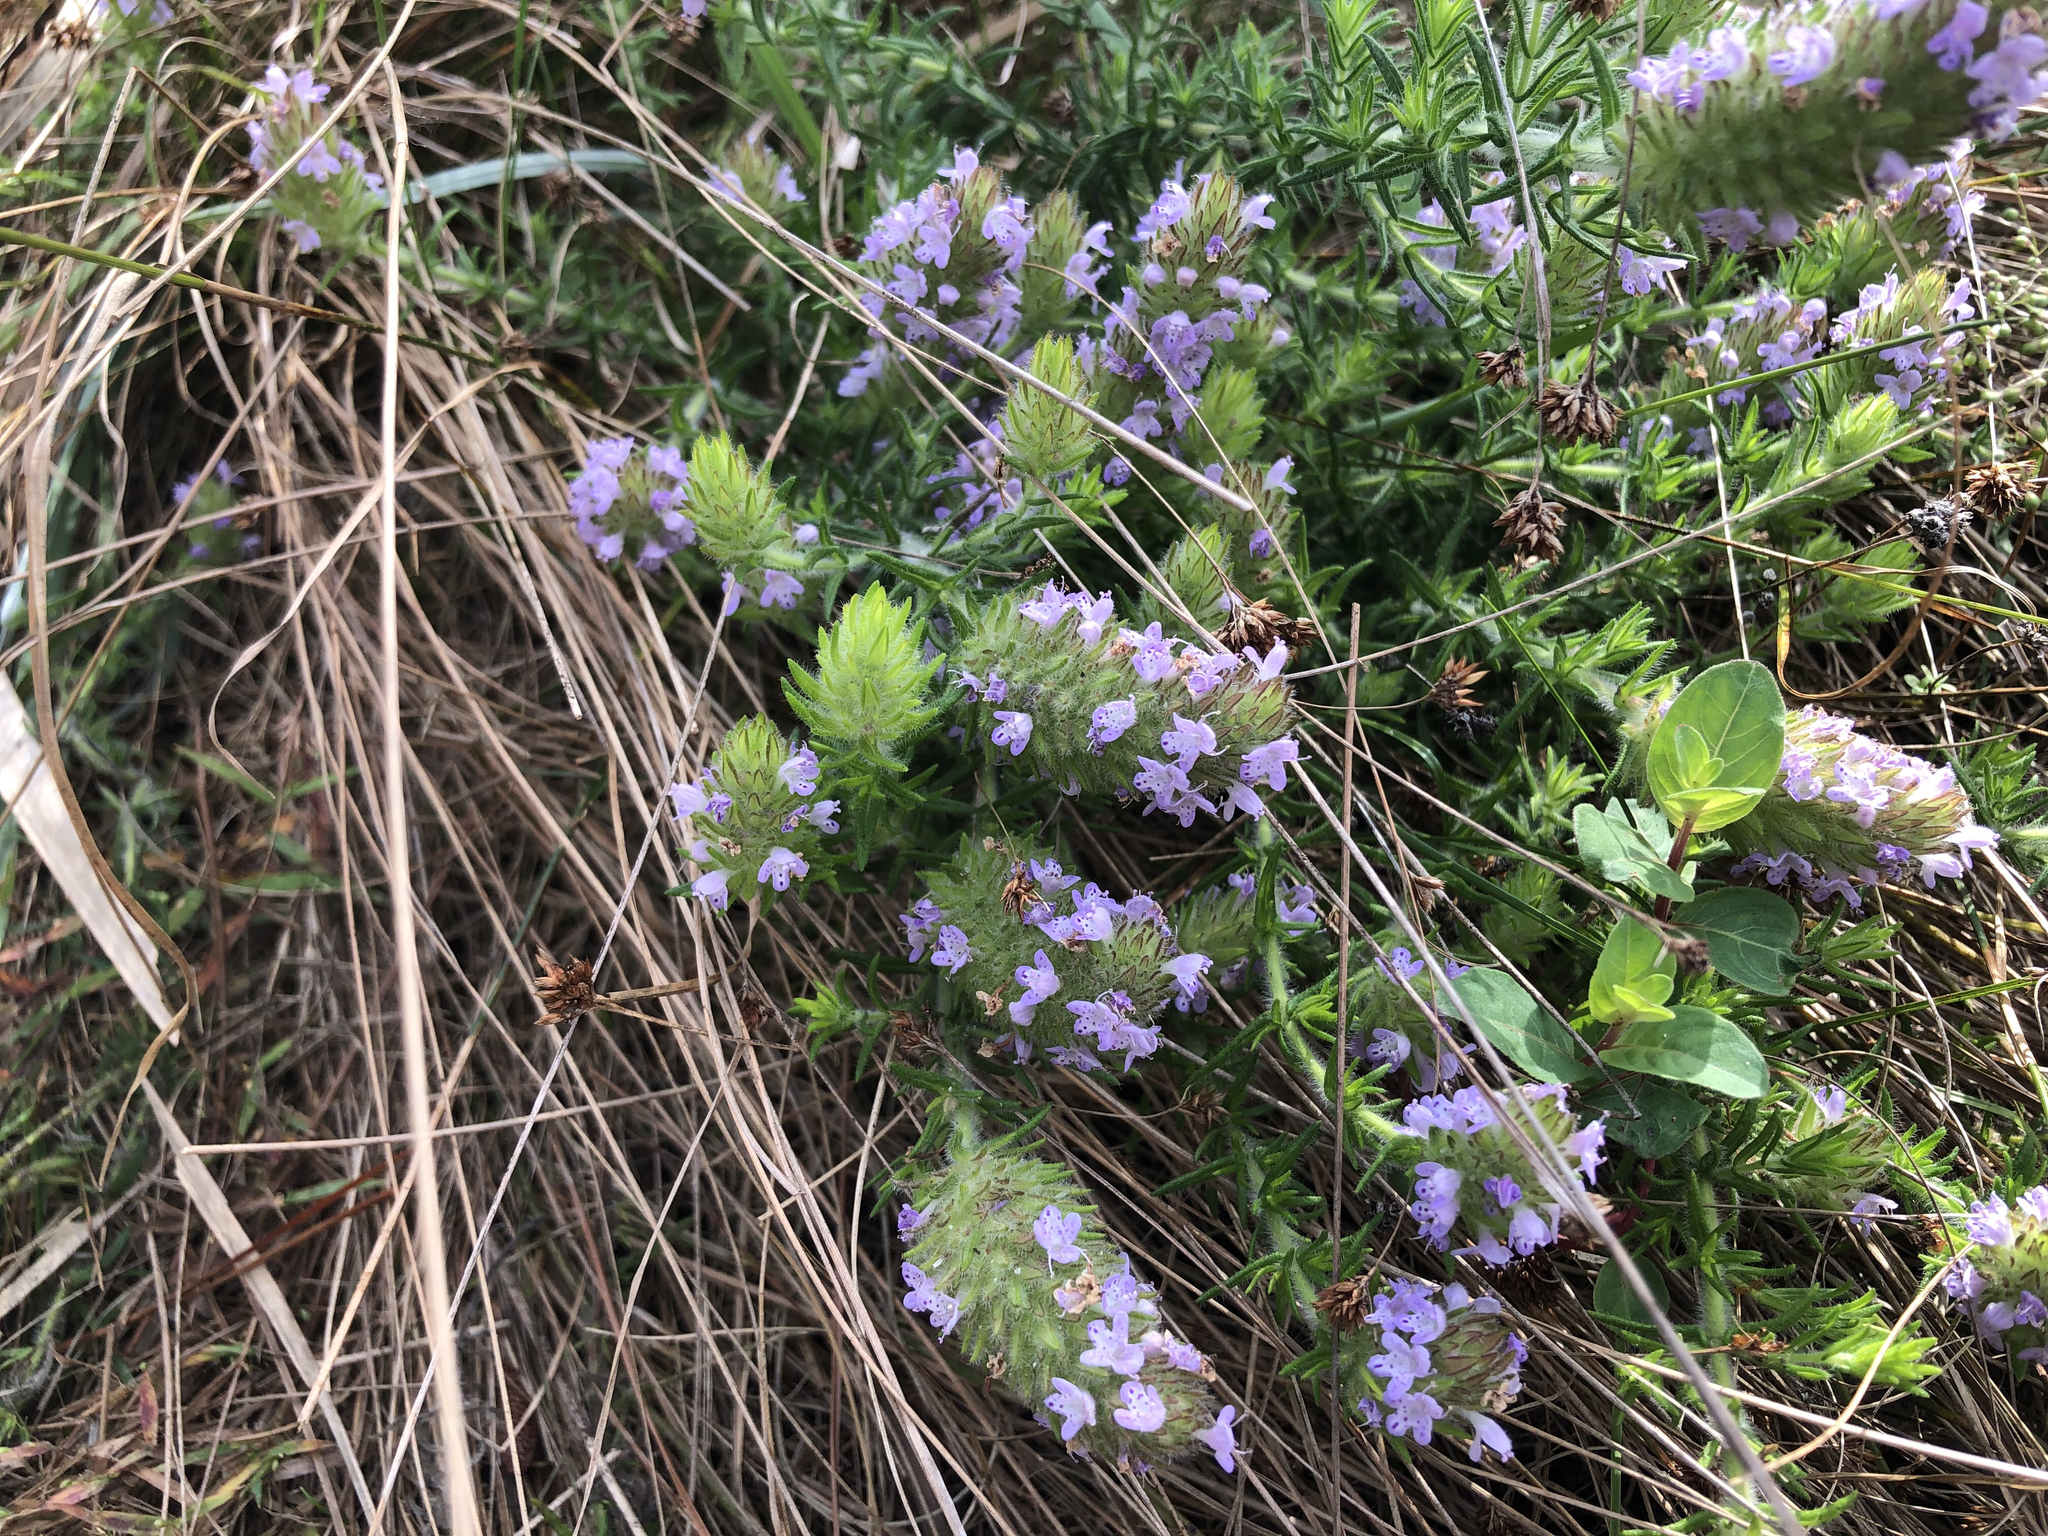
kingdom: Plantae
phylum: Tracheophyta
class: Magnoliopsida
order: Lamiales
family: Lamiaceae
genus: Piloblephis
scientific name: Piloblephis rigida
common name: Wild pennyroyal
